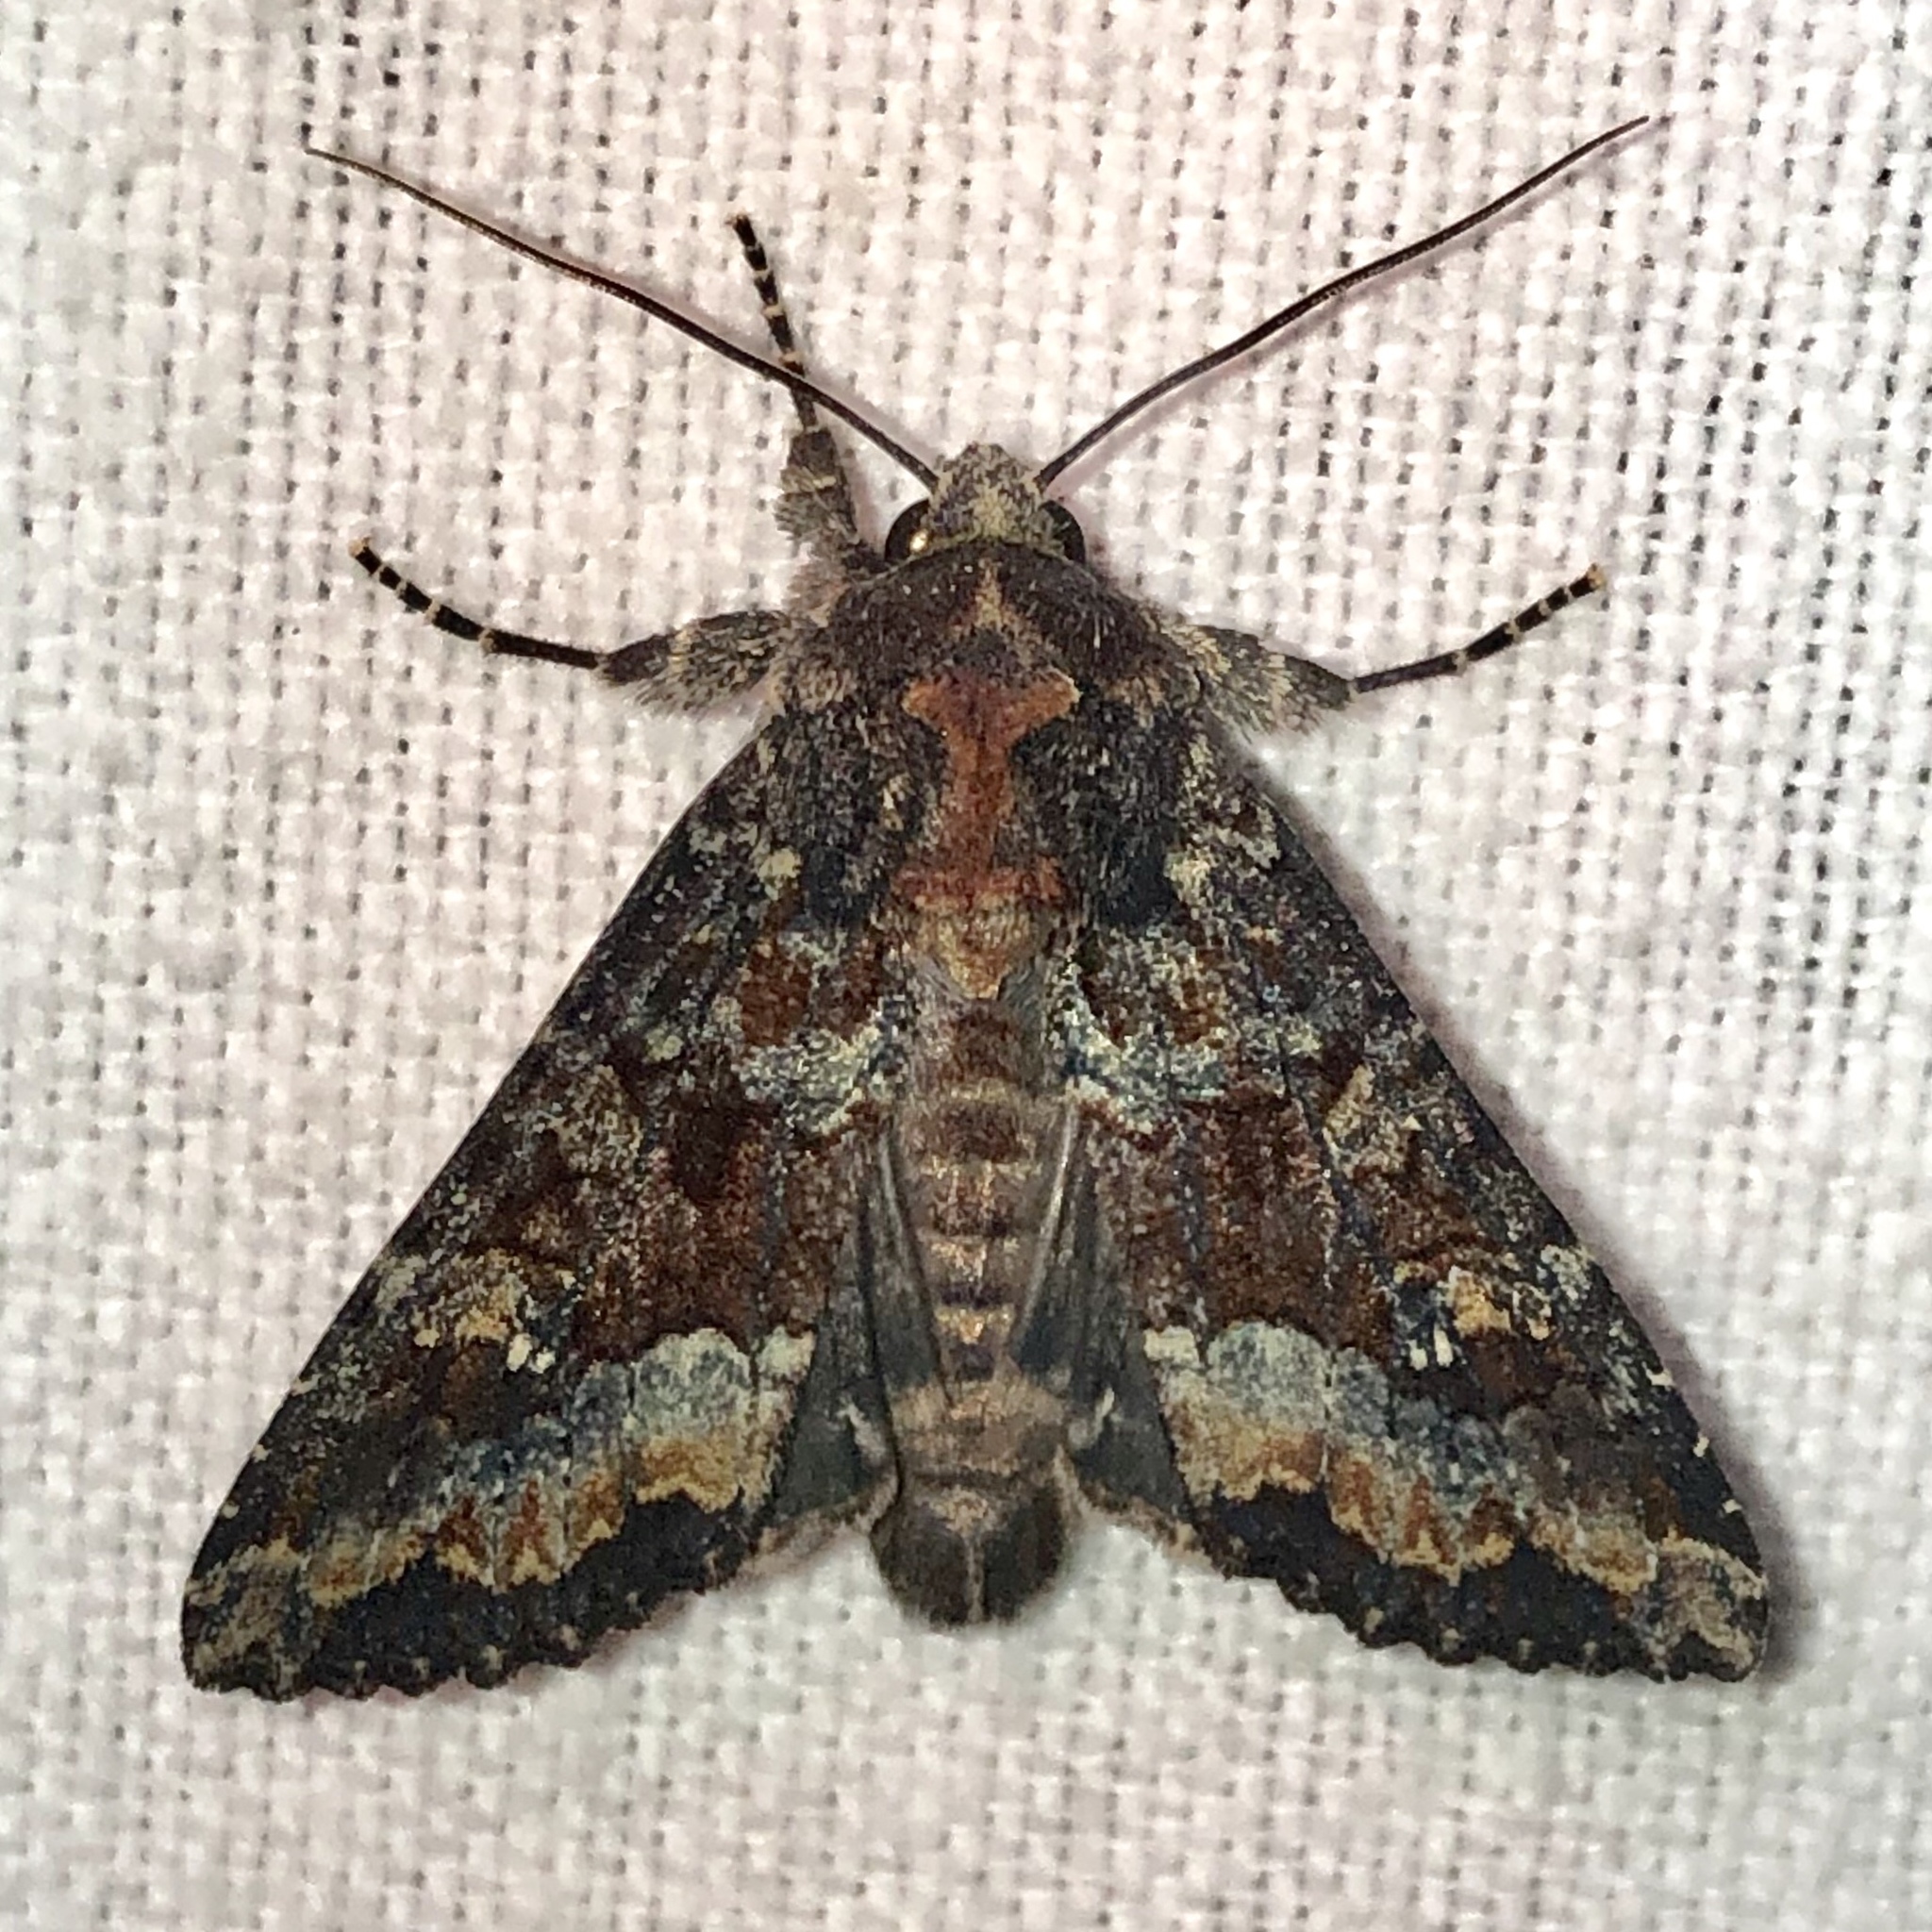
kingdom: Animalia
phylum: Arthropoda
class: Insecta
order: Lepidoptera
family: Noctuidae
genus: Apamea
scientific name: Apamea amputatrix
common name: Yellow-headed cutworm moth
